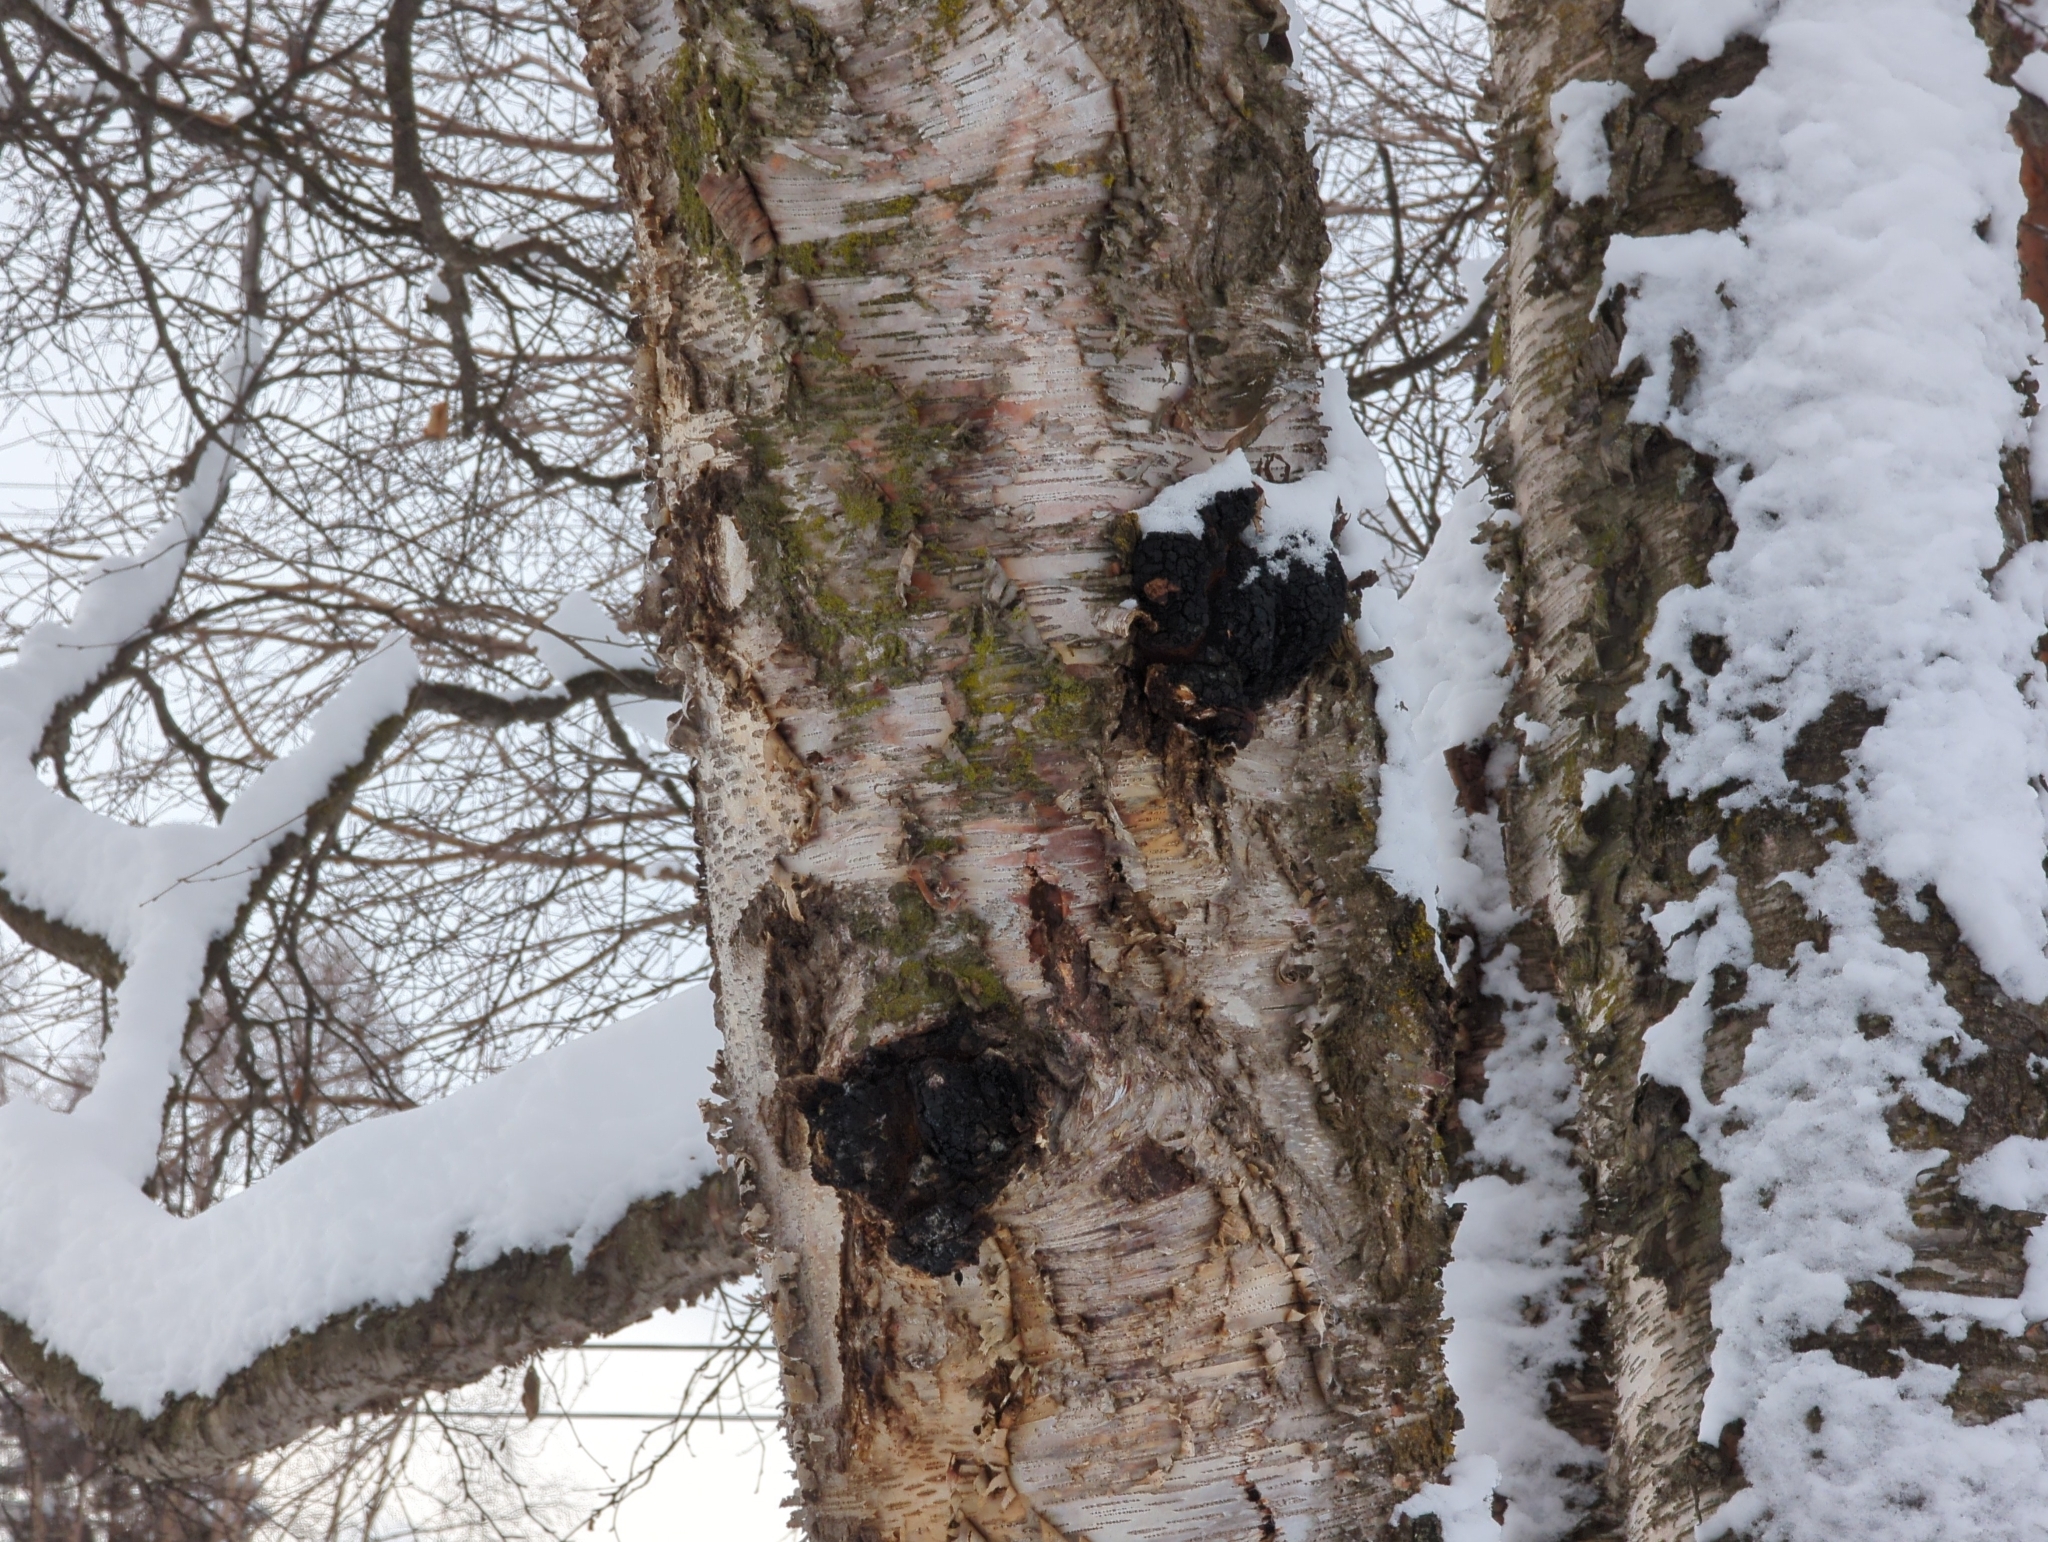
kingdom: Fungi
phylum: Basidiomycota
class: Agaricomycetes
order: Hymenochaetales
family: Hymenochaetaceae
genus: Inonotus
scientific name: Inonotus obliquus
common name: Chaga
